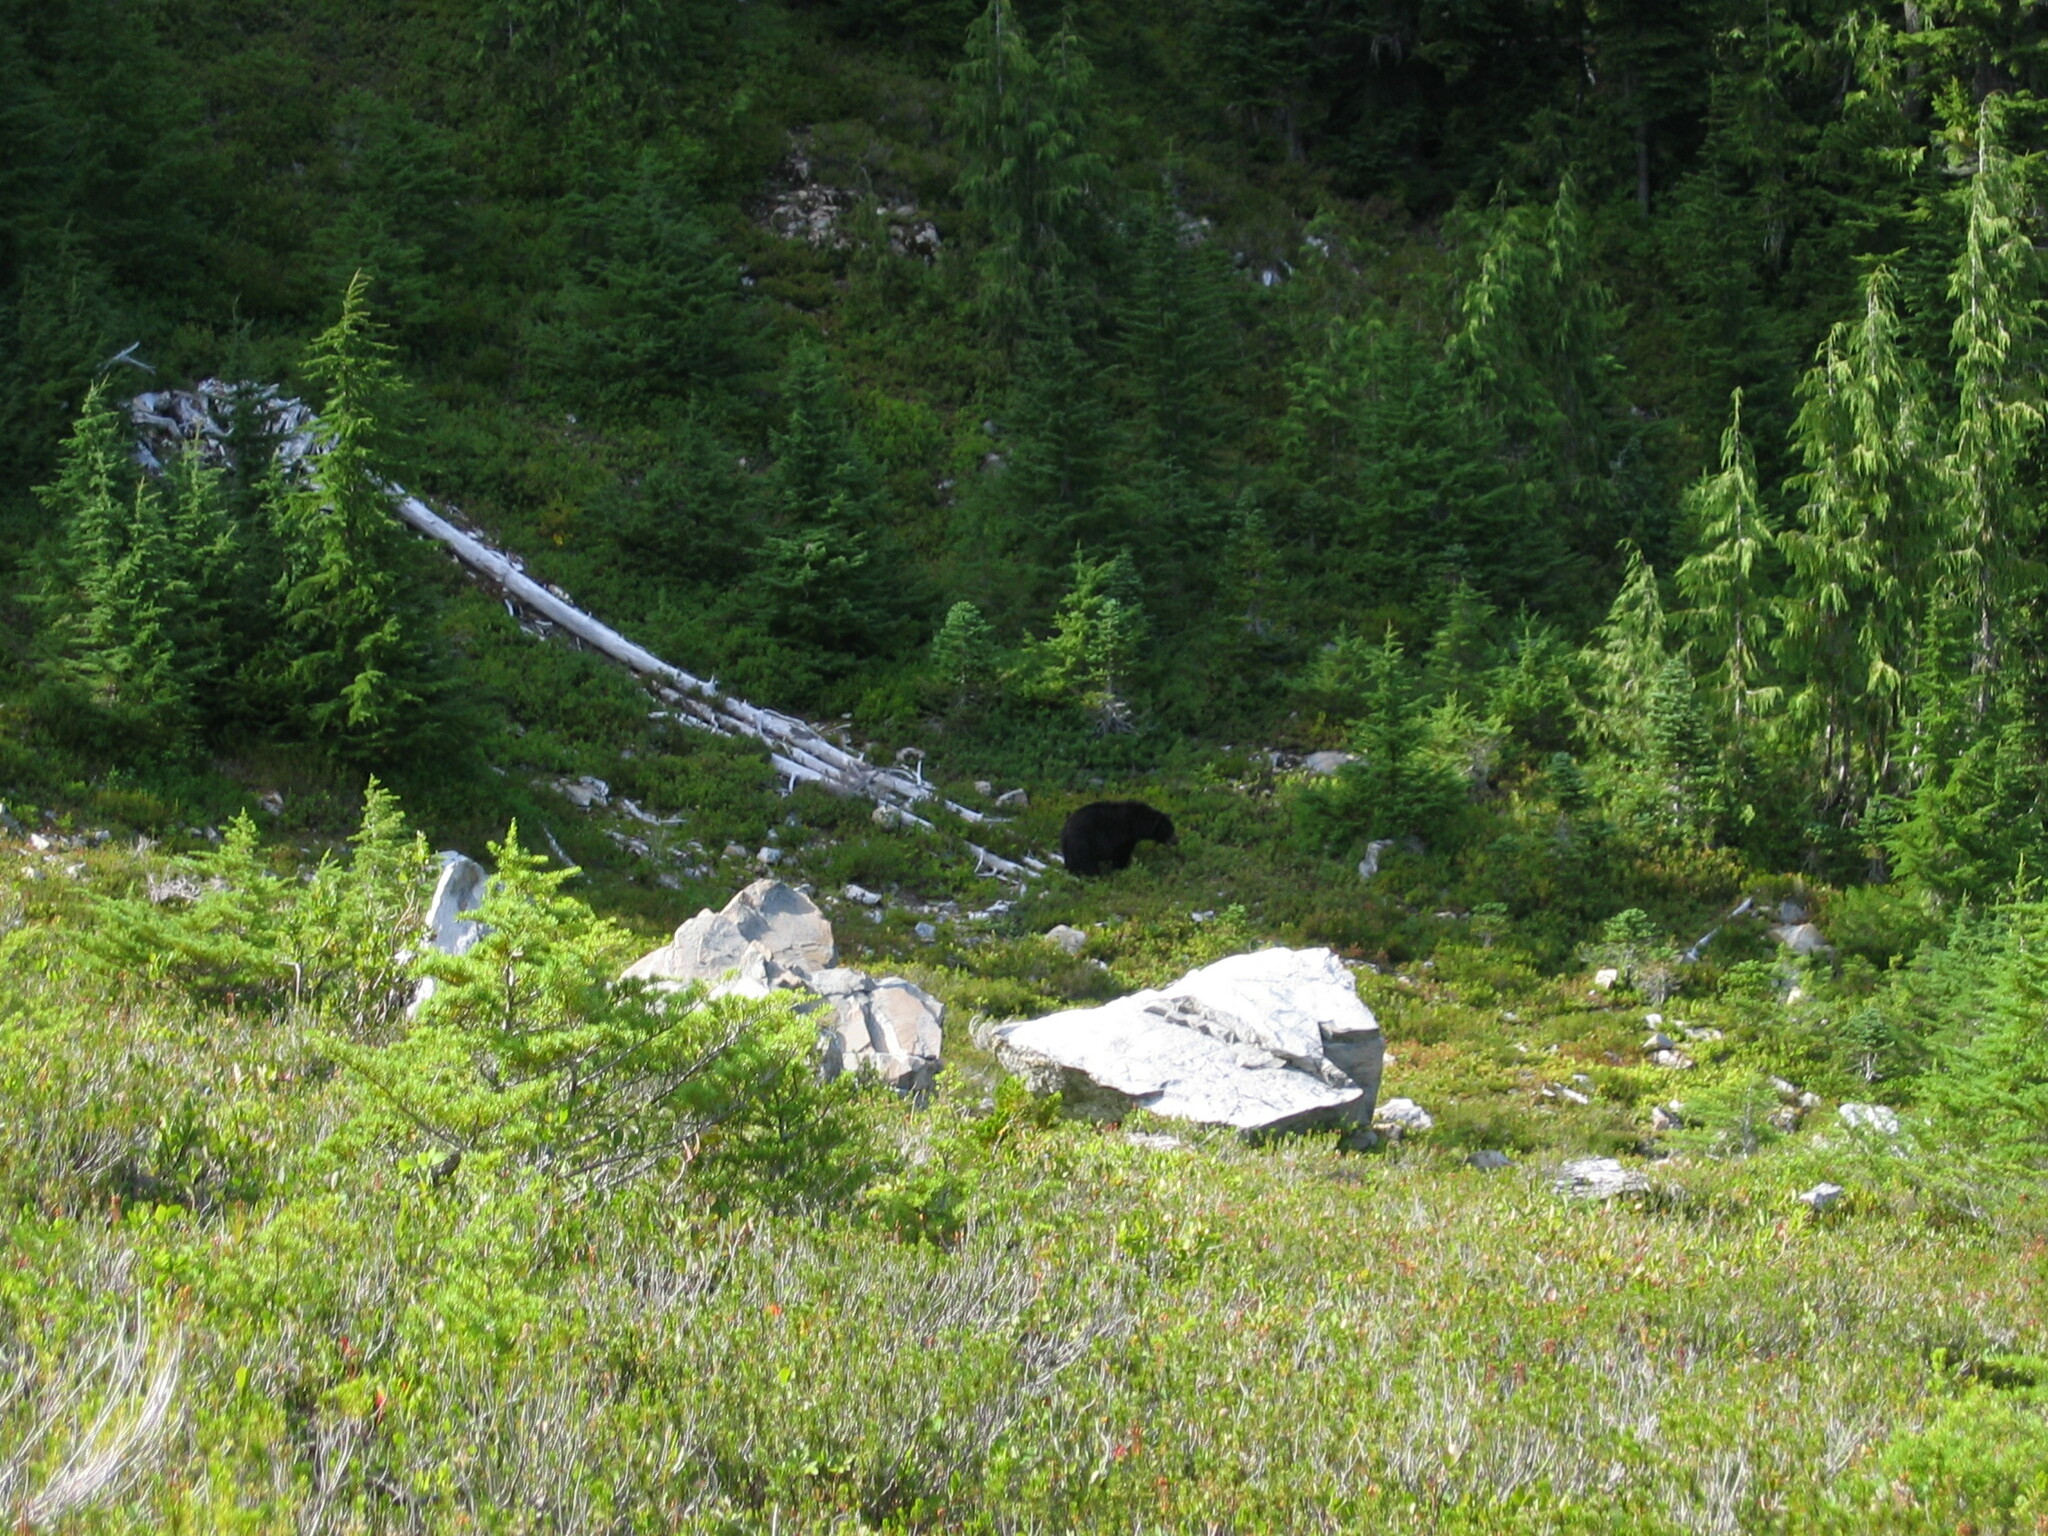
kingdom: Animalia
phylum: Chordata
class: Mammalia
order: Carnivora
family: Ursidae
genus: Ursus
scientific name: Ursus americanus
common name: American black bear
